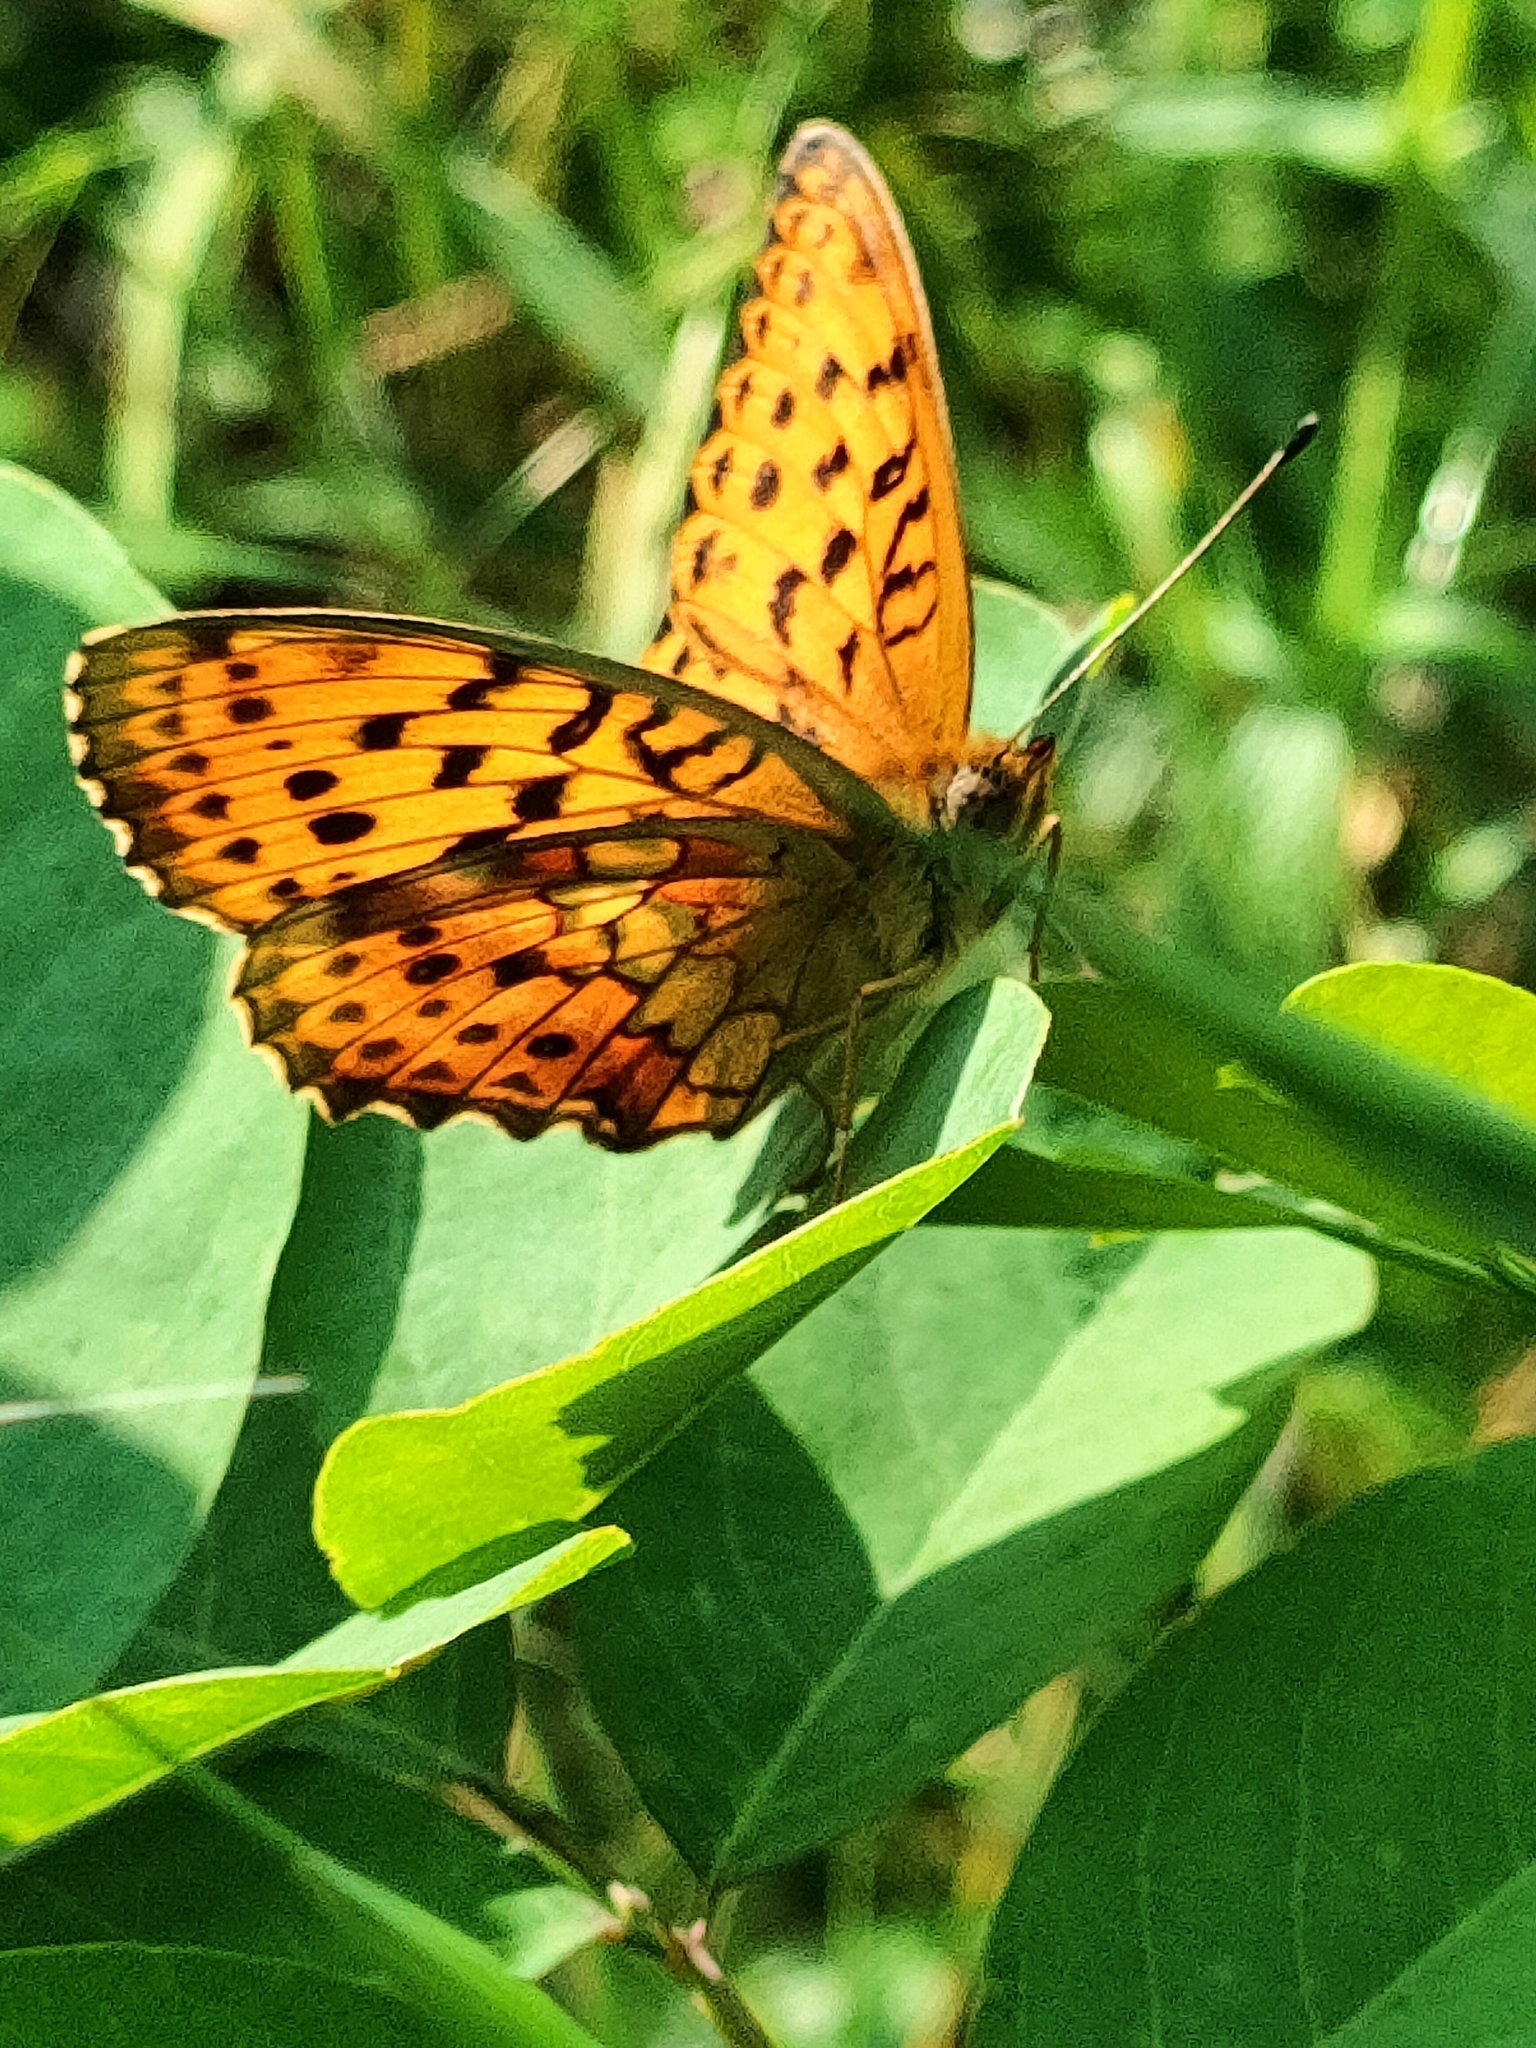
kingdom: Animalia
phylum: Arthropoda
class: Insecta
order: Lepidoptera
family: Nymphalidae
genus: Brenthis
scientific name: Brenthis daphne
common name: Marbled fritillary
